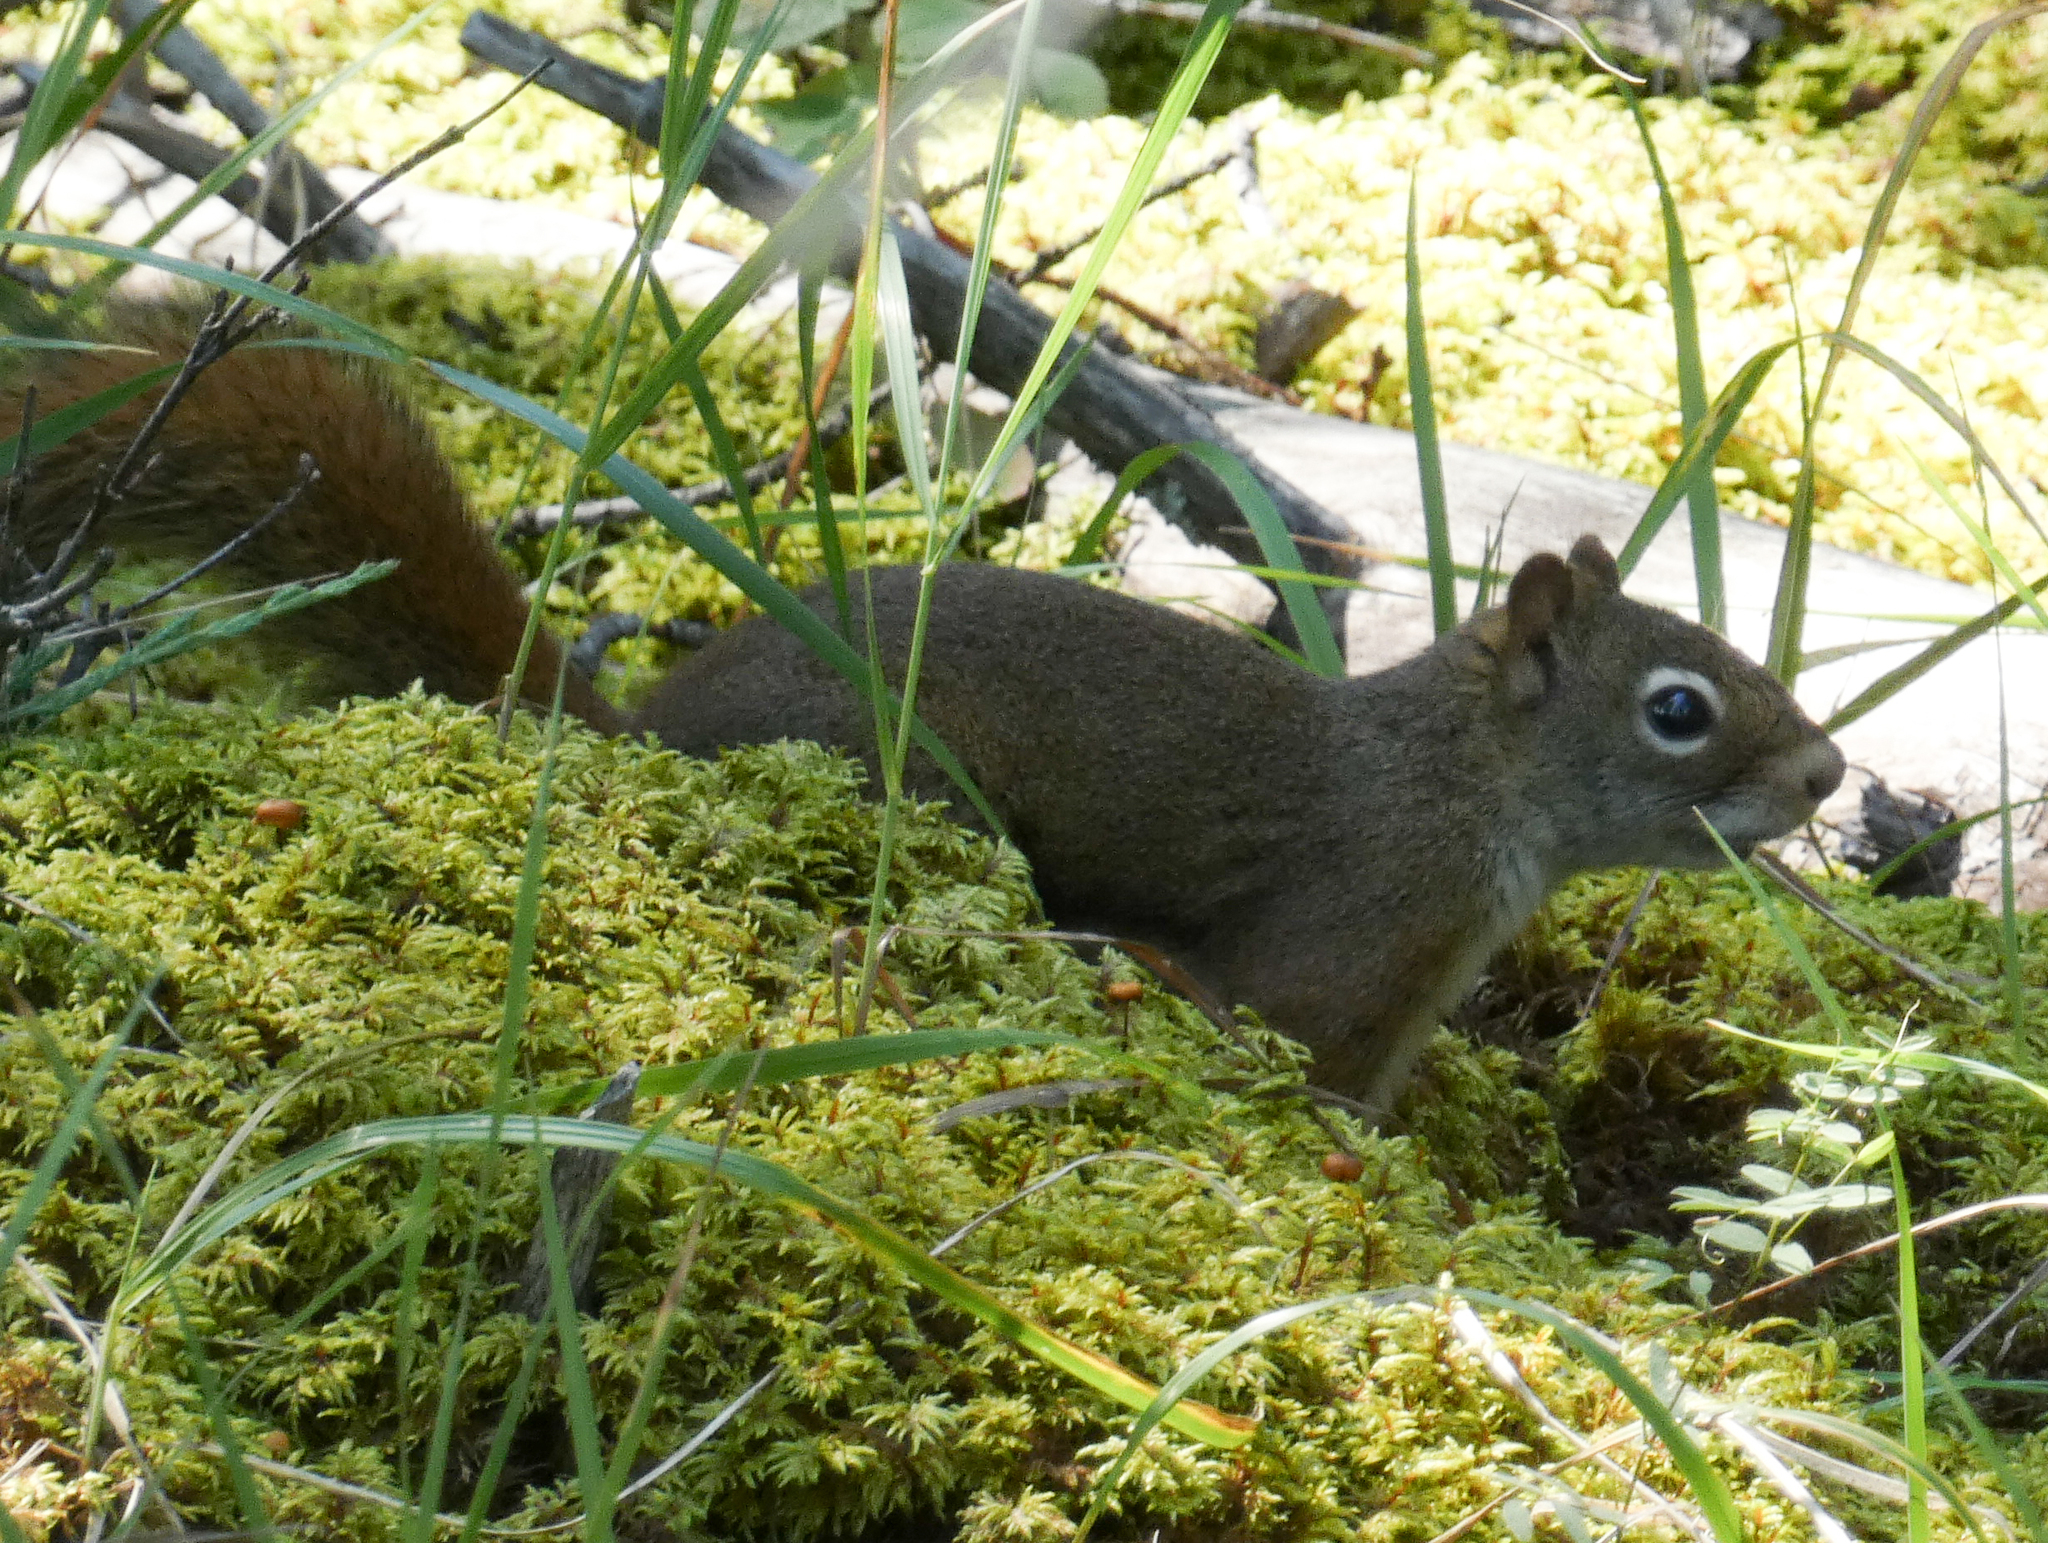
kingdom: Animalia
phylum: Chordata
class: Mammalia
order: Rodentia
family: Sciuridae
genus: Tamiasciurus
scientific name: Tamiasciurus hudsonicus
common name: Red squirrel
